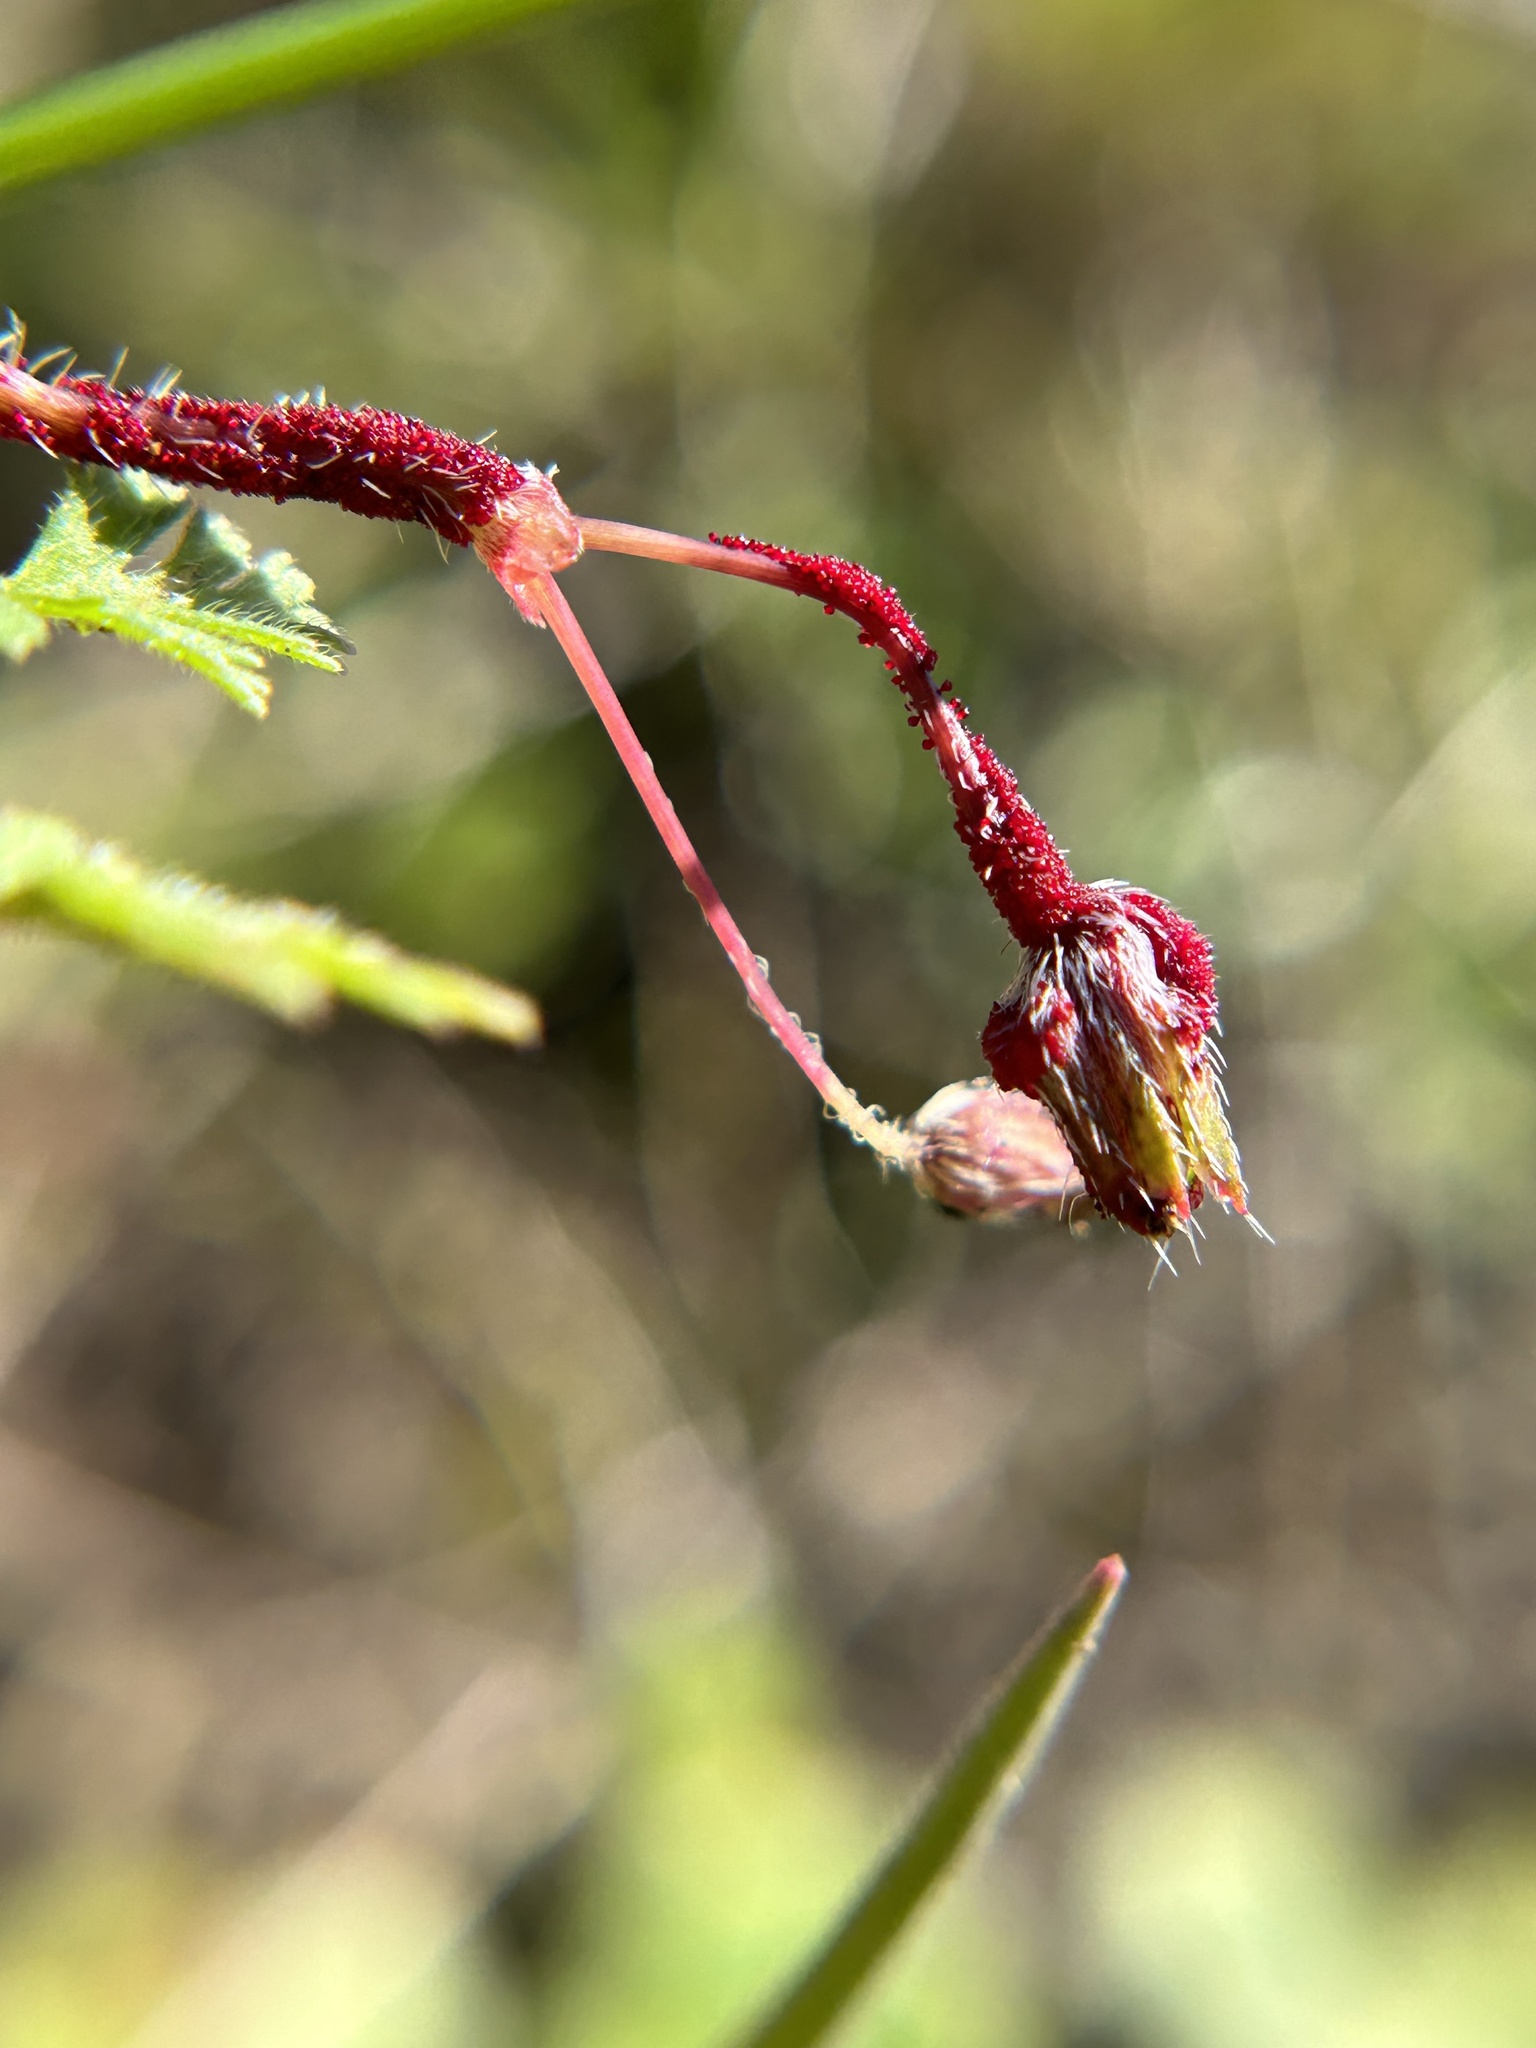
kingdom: Fungi
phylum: Chytridiomycota
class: Chytridiomycetes
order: Chytridiales
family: Synchytriaceae
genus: Synchytrium
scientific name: Synchytrium papillatum
